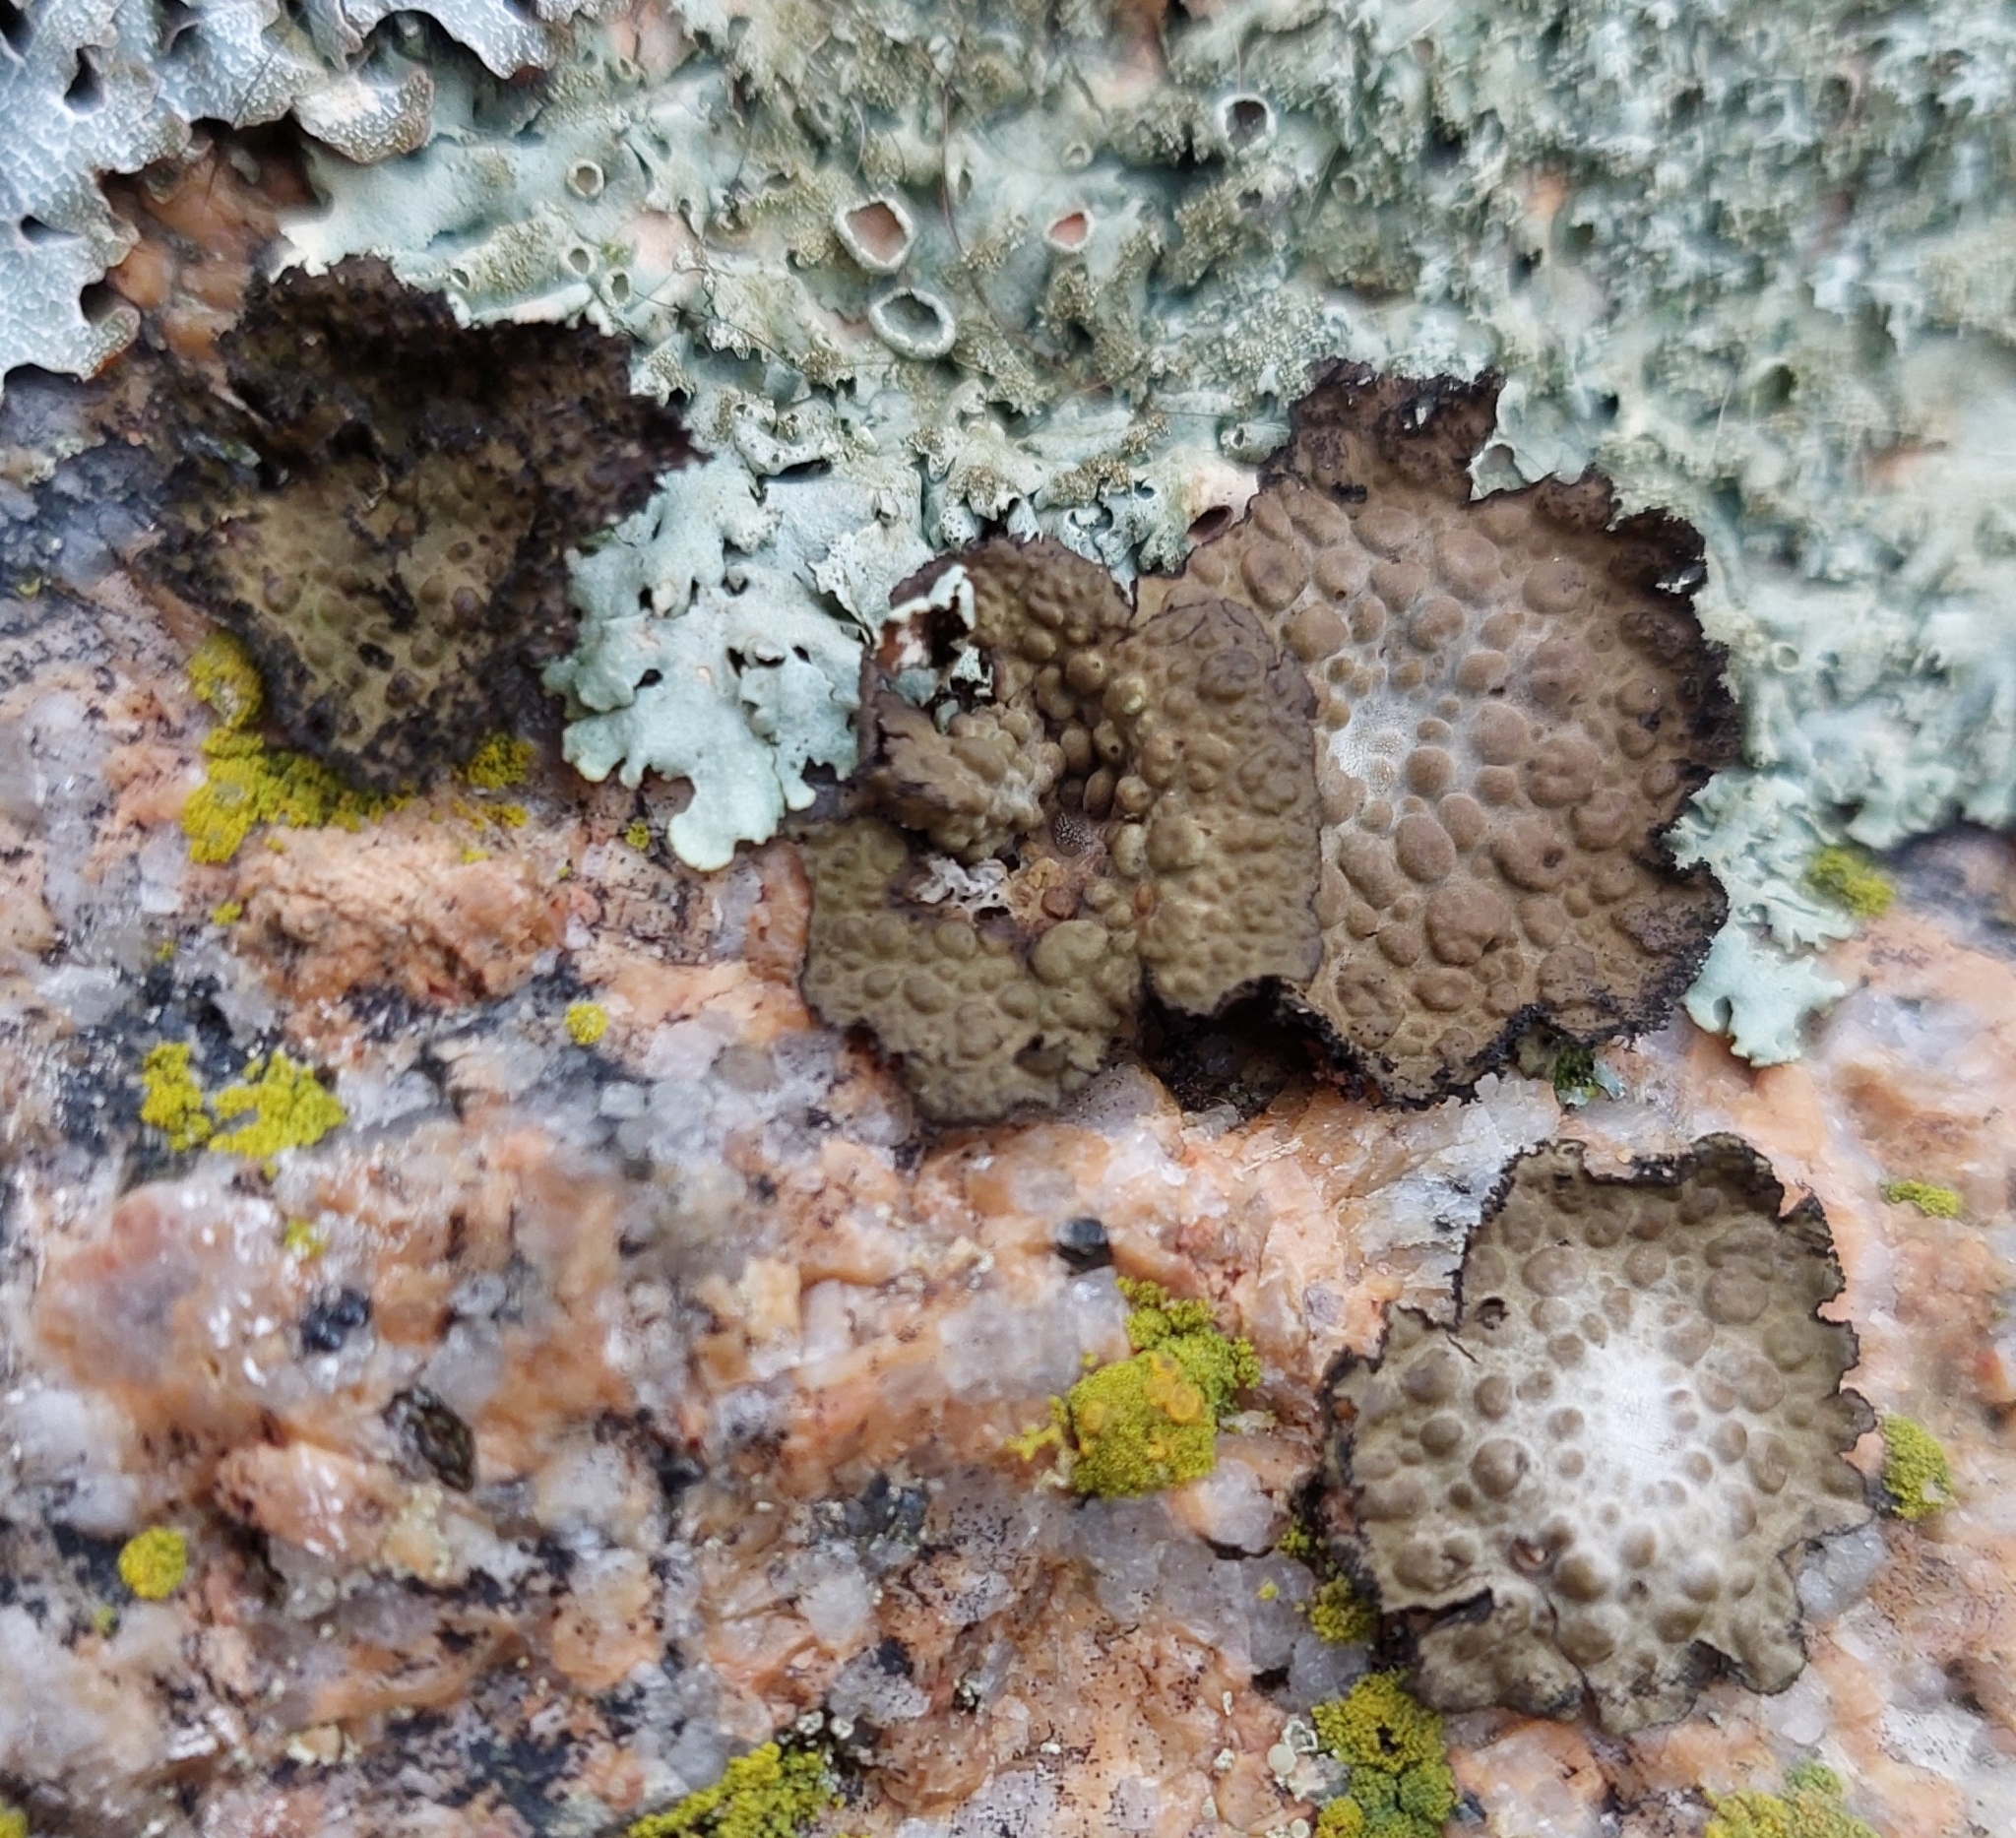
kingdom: Fungi
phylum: Ascomycota
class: Lecanoromycetes
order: Umbilicariales
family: Umbilicariaceae
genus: Lasallia
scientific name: Lasallia pustulata
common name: Blistered toadskin lichen
